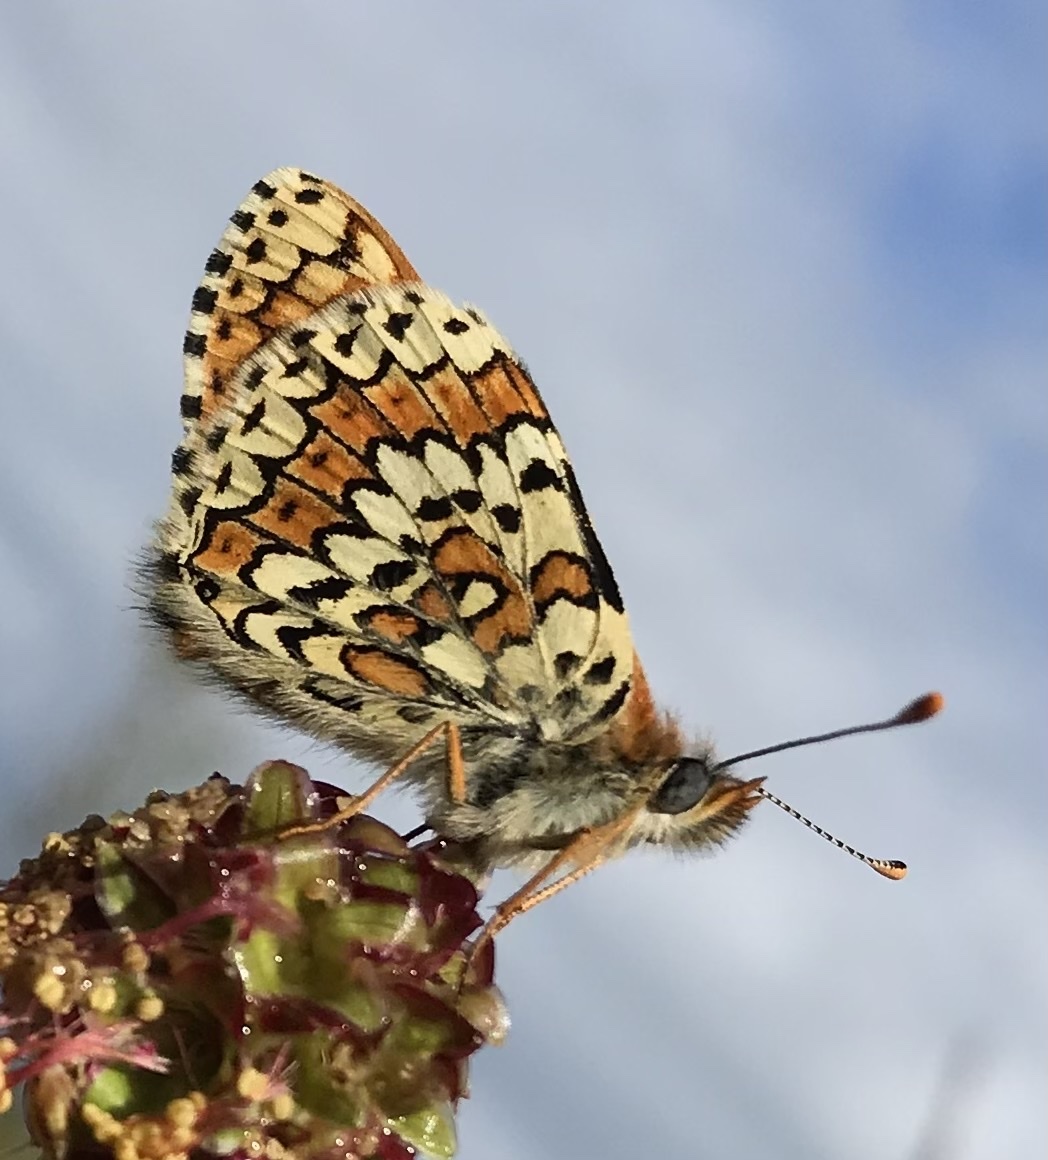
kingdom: Animalia
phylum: Arthropoda
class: Insecta
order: Lepidoptera
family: Nymphalidae
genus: Melitaea
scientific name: Melitaea cinxia
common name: Glanville fritillary
